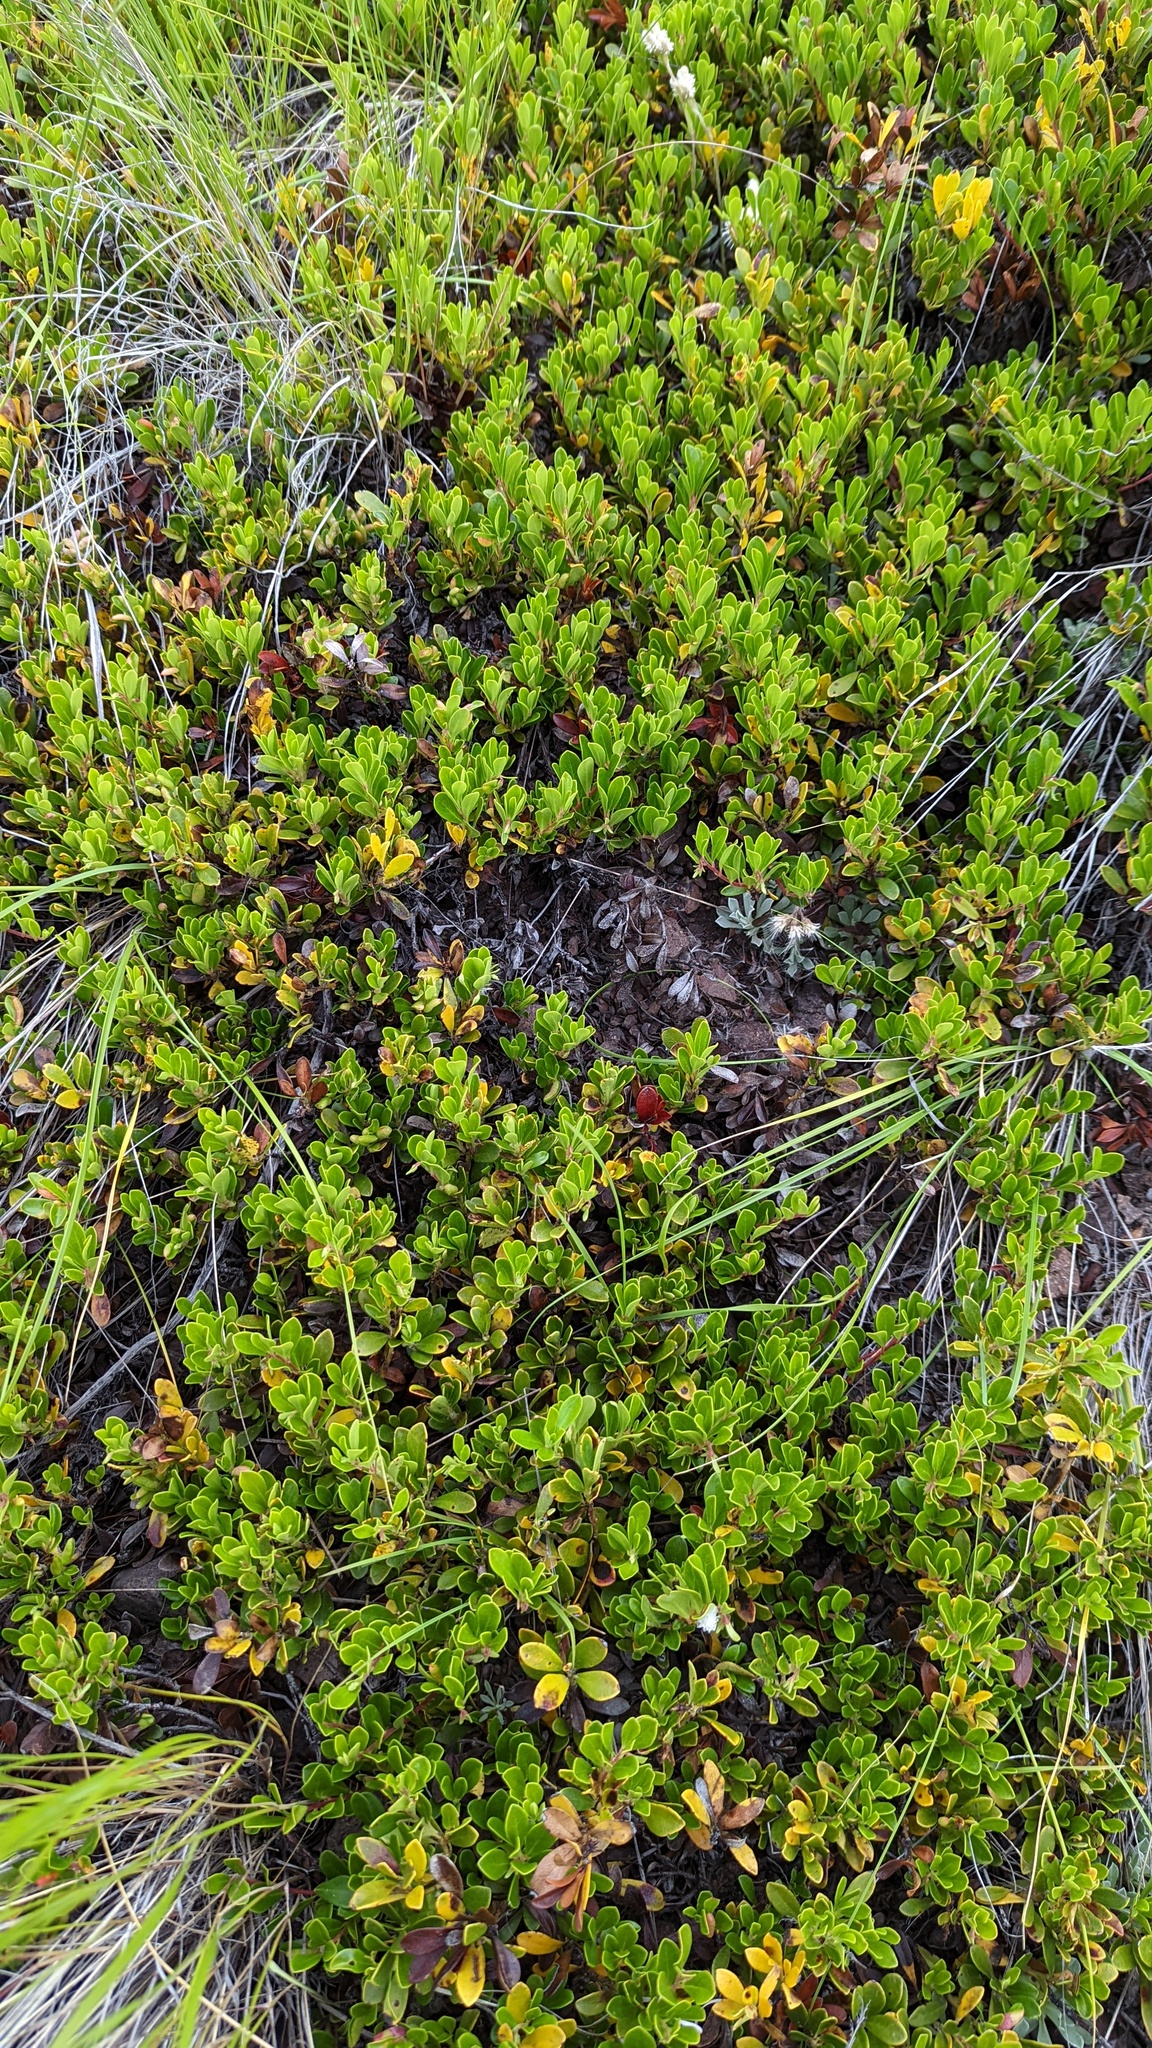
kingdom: Plantae
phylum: Tracheophyta
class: Magnoliopsida
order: Ericales
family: Ericaceae
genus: Arctostaphylos
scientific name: Arctostaphylos uva-ursi
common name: Bearberry
